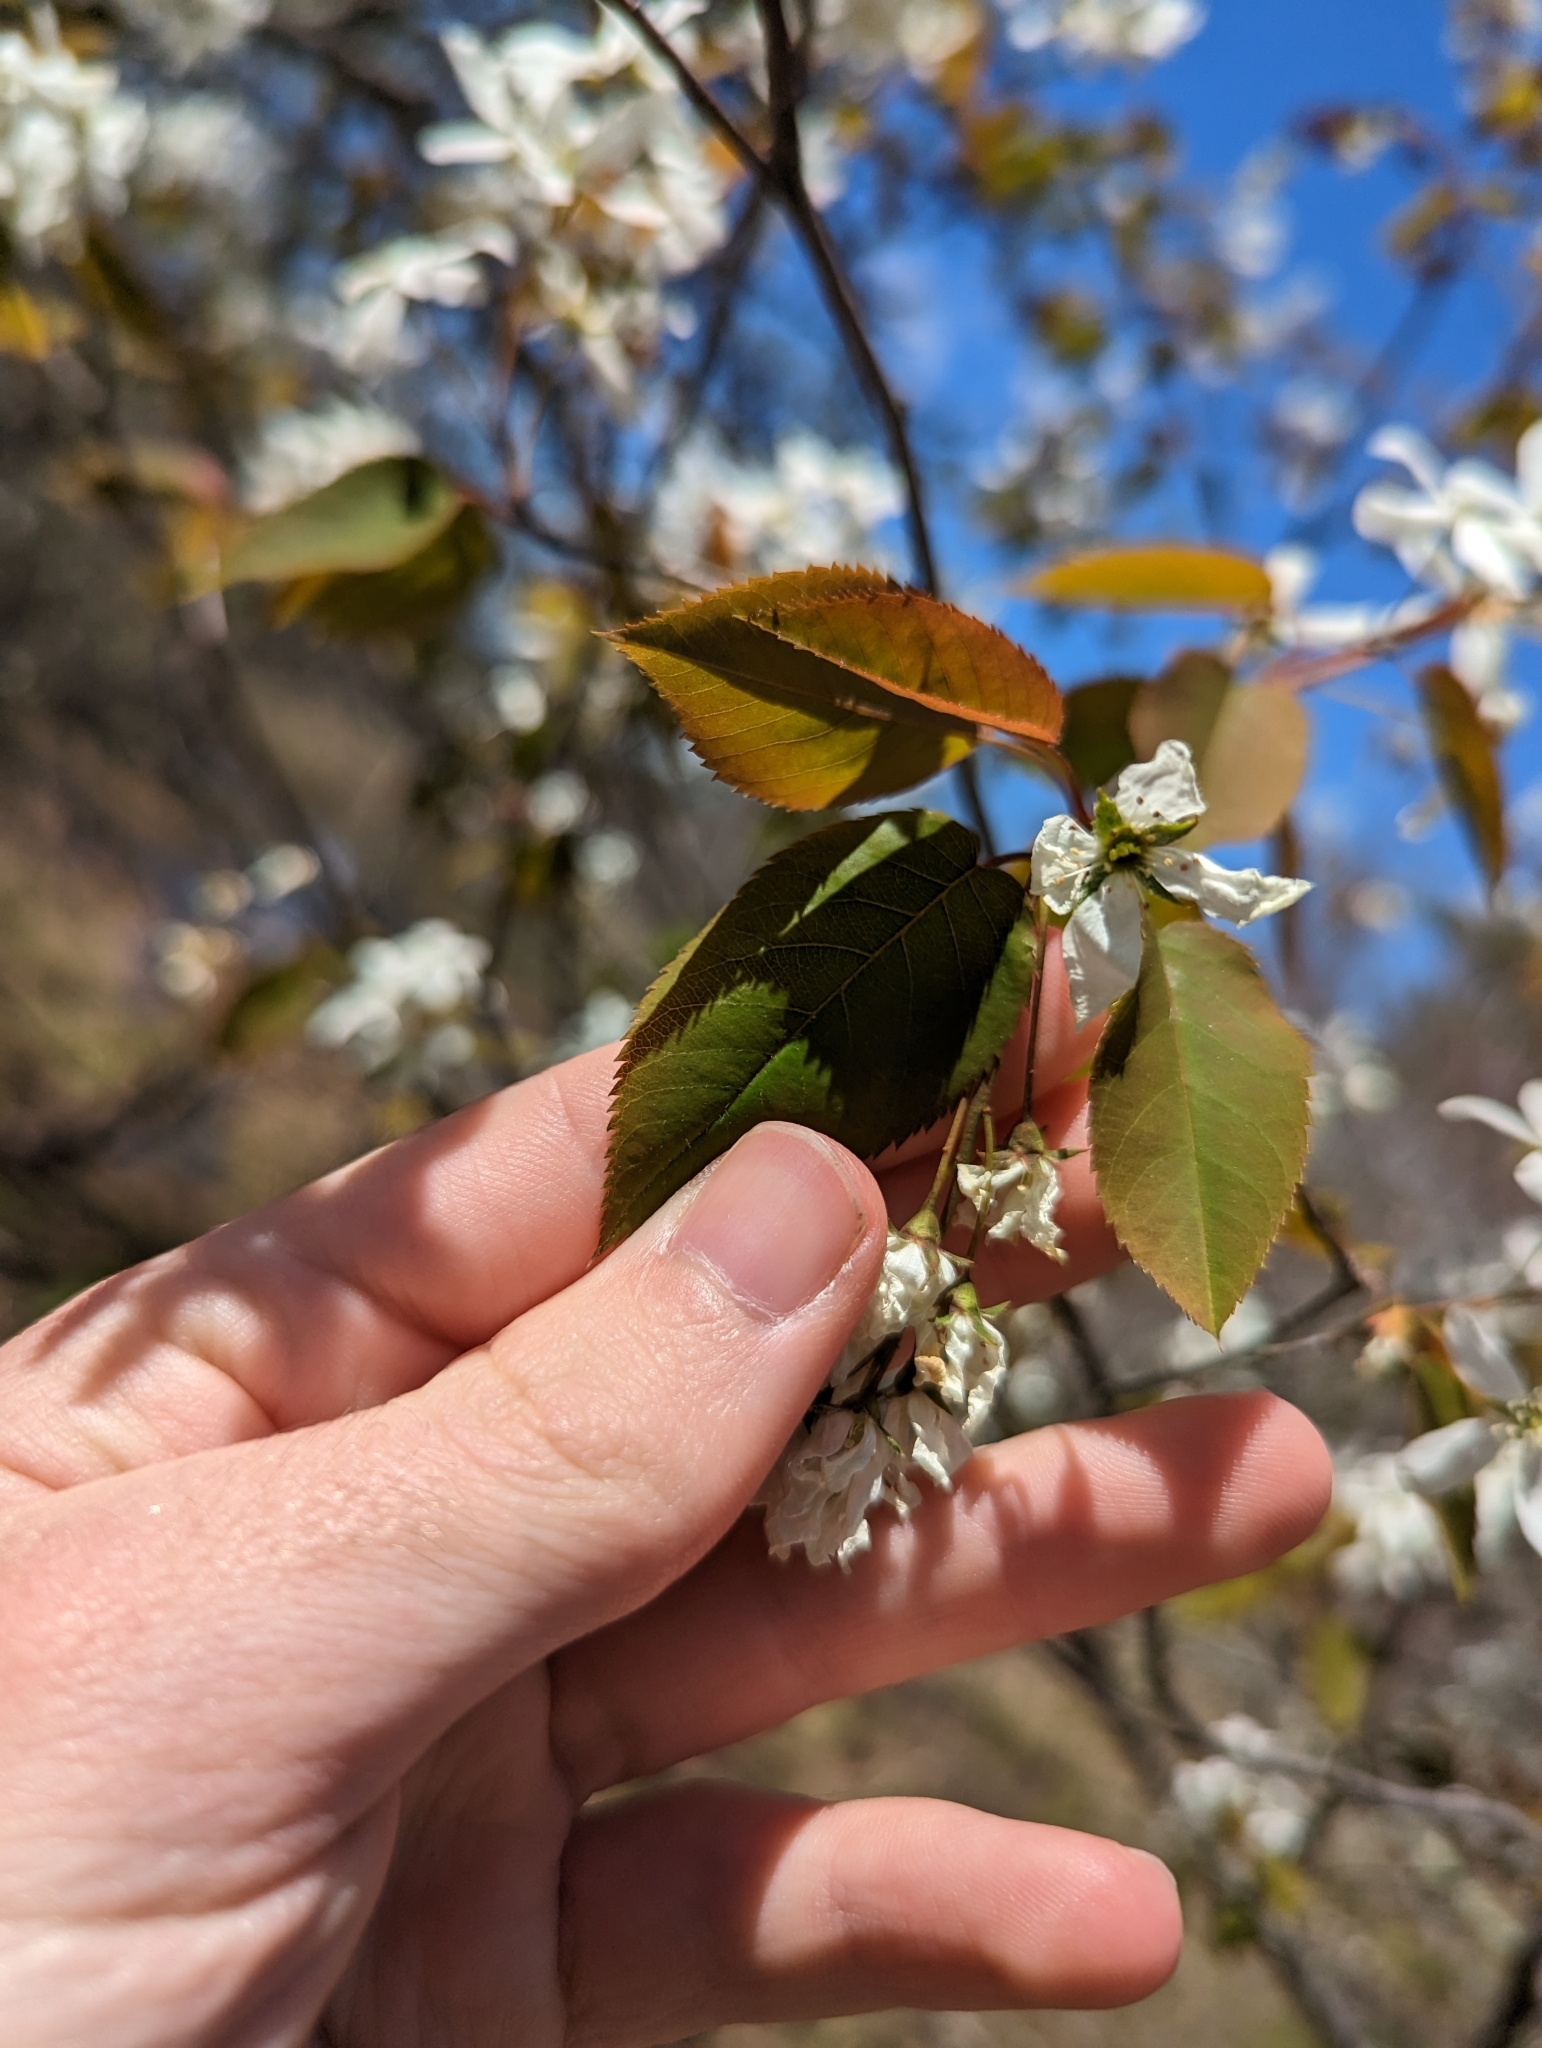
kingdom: Plantae
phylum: Tracheophyta
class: Magnoliopsida
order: Rosales
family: Rosaceae
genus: Amelanchier
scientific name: Amelanchier laevis
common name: Allegheny serviceberry
